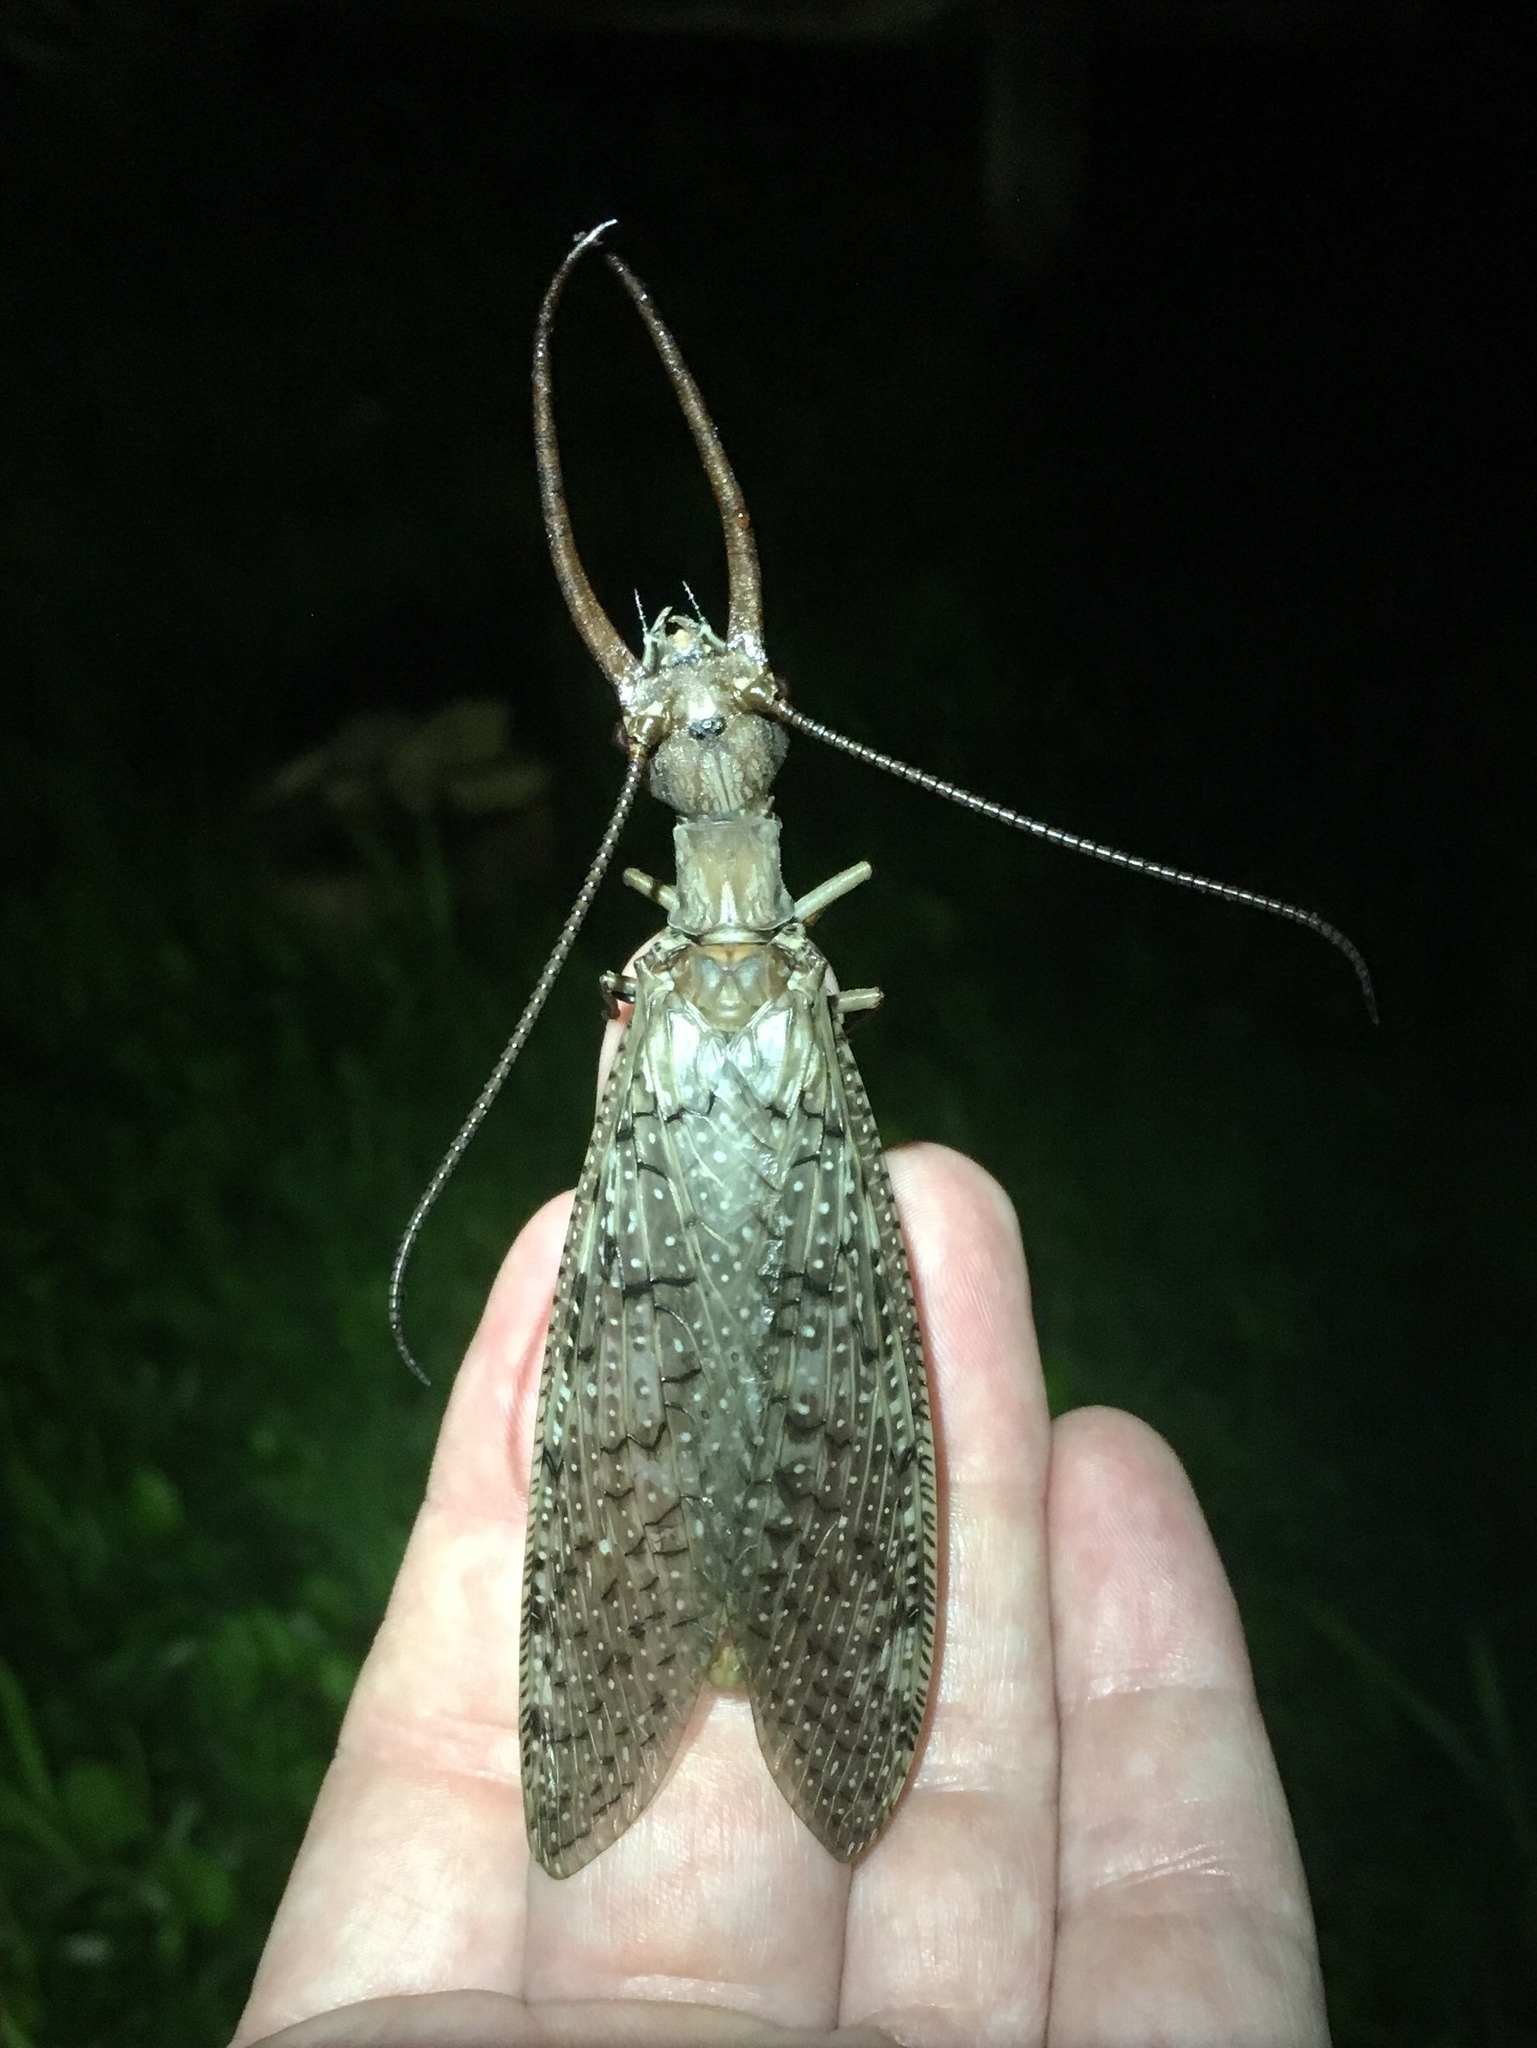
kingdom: Animalia
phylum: Arthropoda
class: Insecta
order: Megaloptera
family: Corydalidae
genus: Corydalus
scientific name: Corydalus cornutus
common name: Dobsonfly
